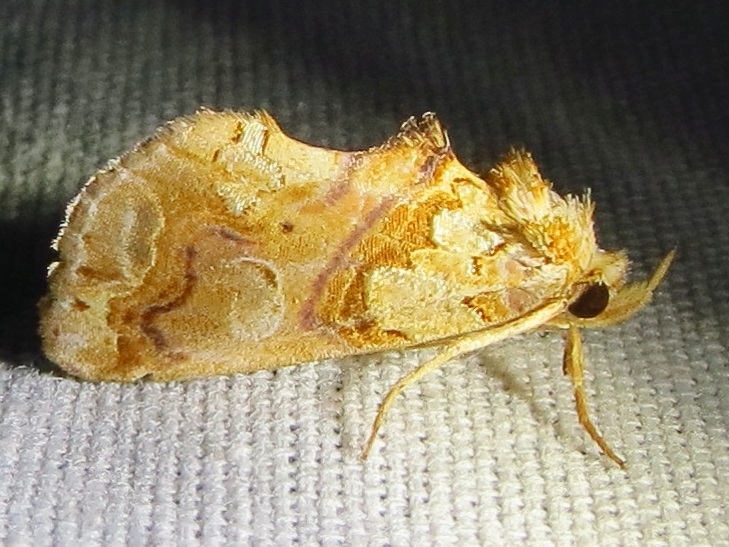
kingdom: Animalia
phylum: Arthropoda
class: Insecta
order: Lepidoptera
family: Erebidae
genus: Plusiodonta
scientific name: Plusiodonta compressipalpis
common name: Moonseed moth
